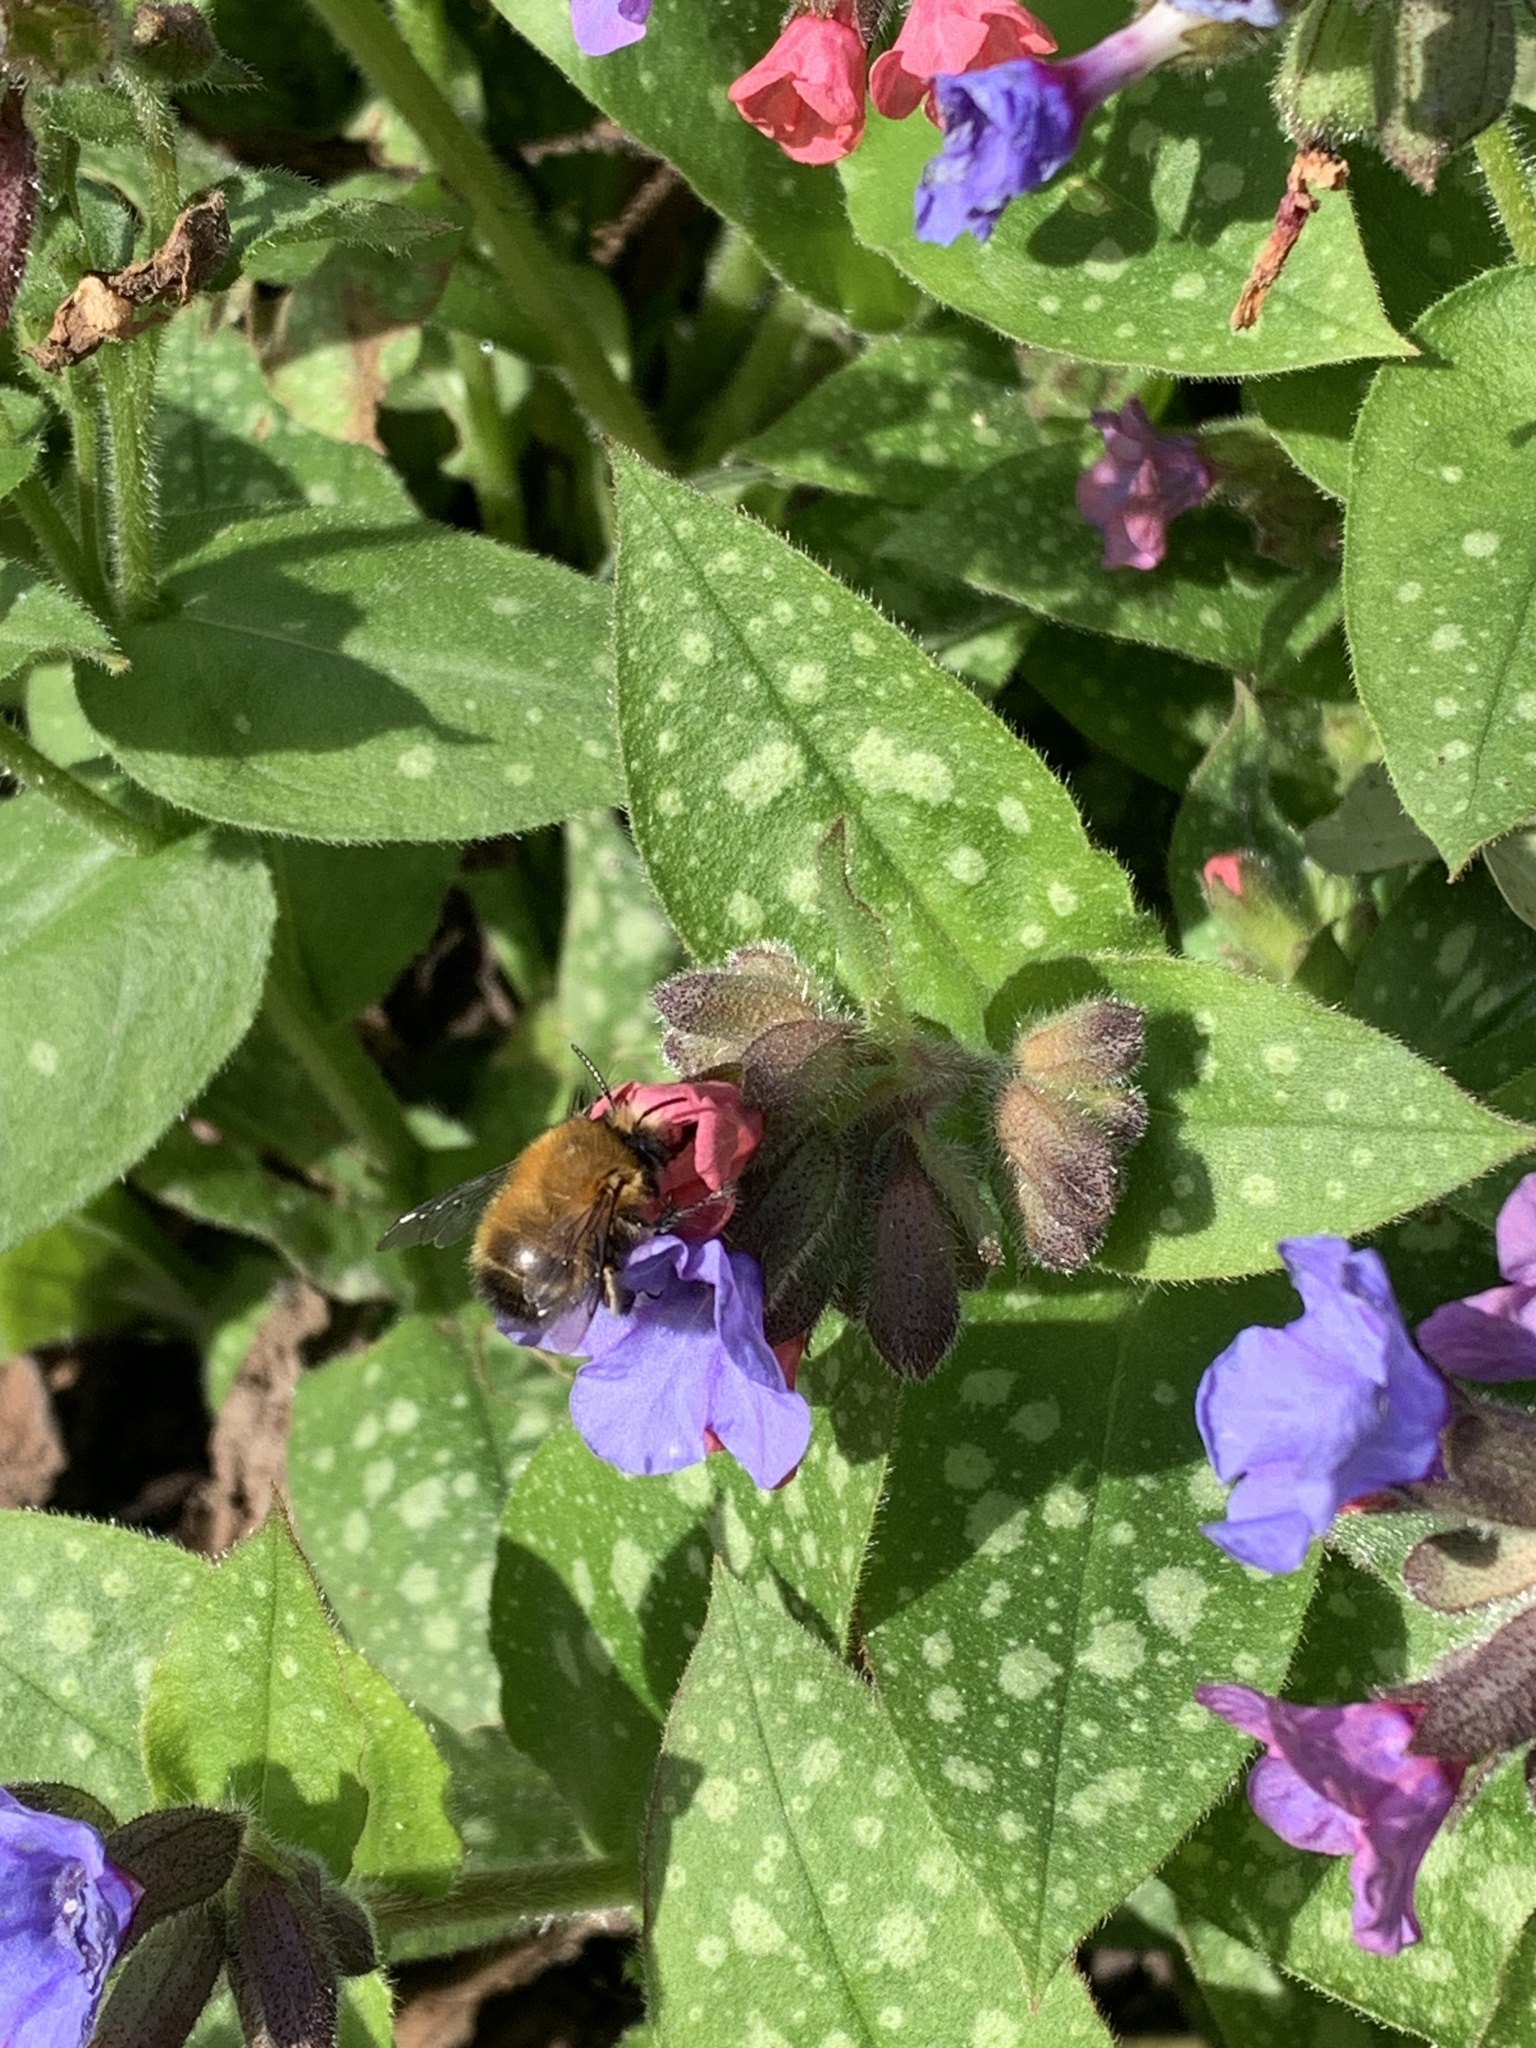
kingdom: Animalia
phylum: Arthropoda
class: Insecta
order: Hymenoptera
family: Apidae
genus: Anthophora
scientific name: Anthophora plumipes
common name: Hairy-footed flower bee
